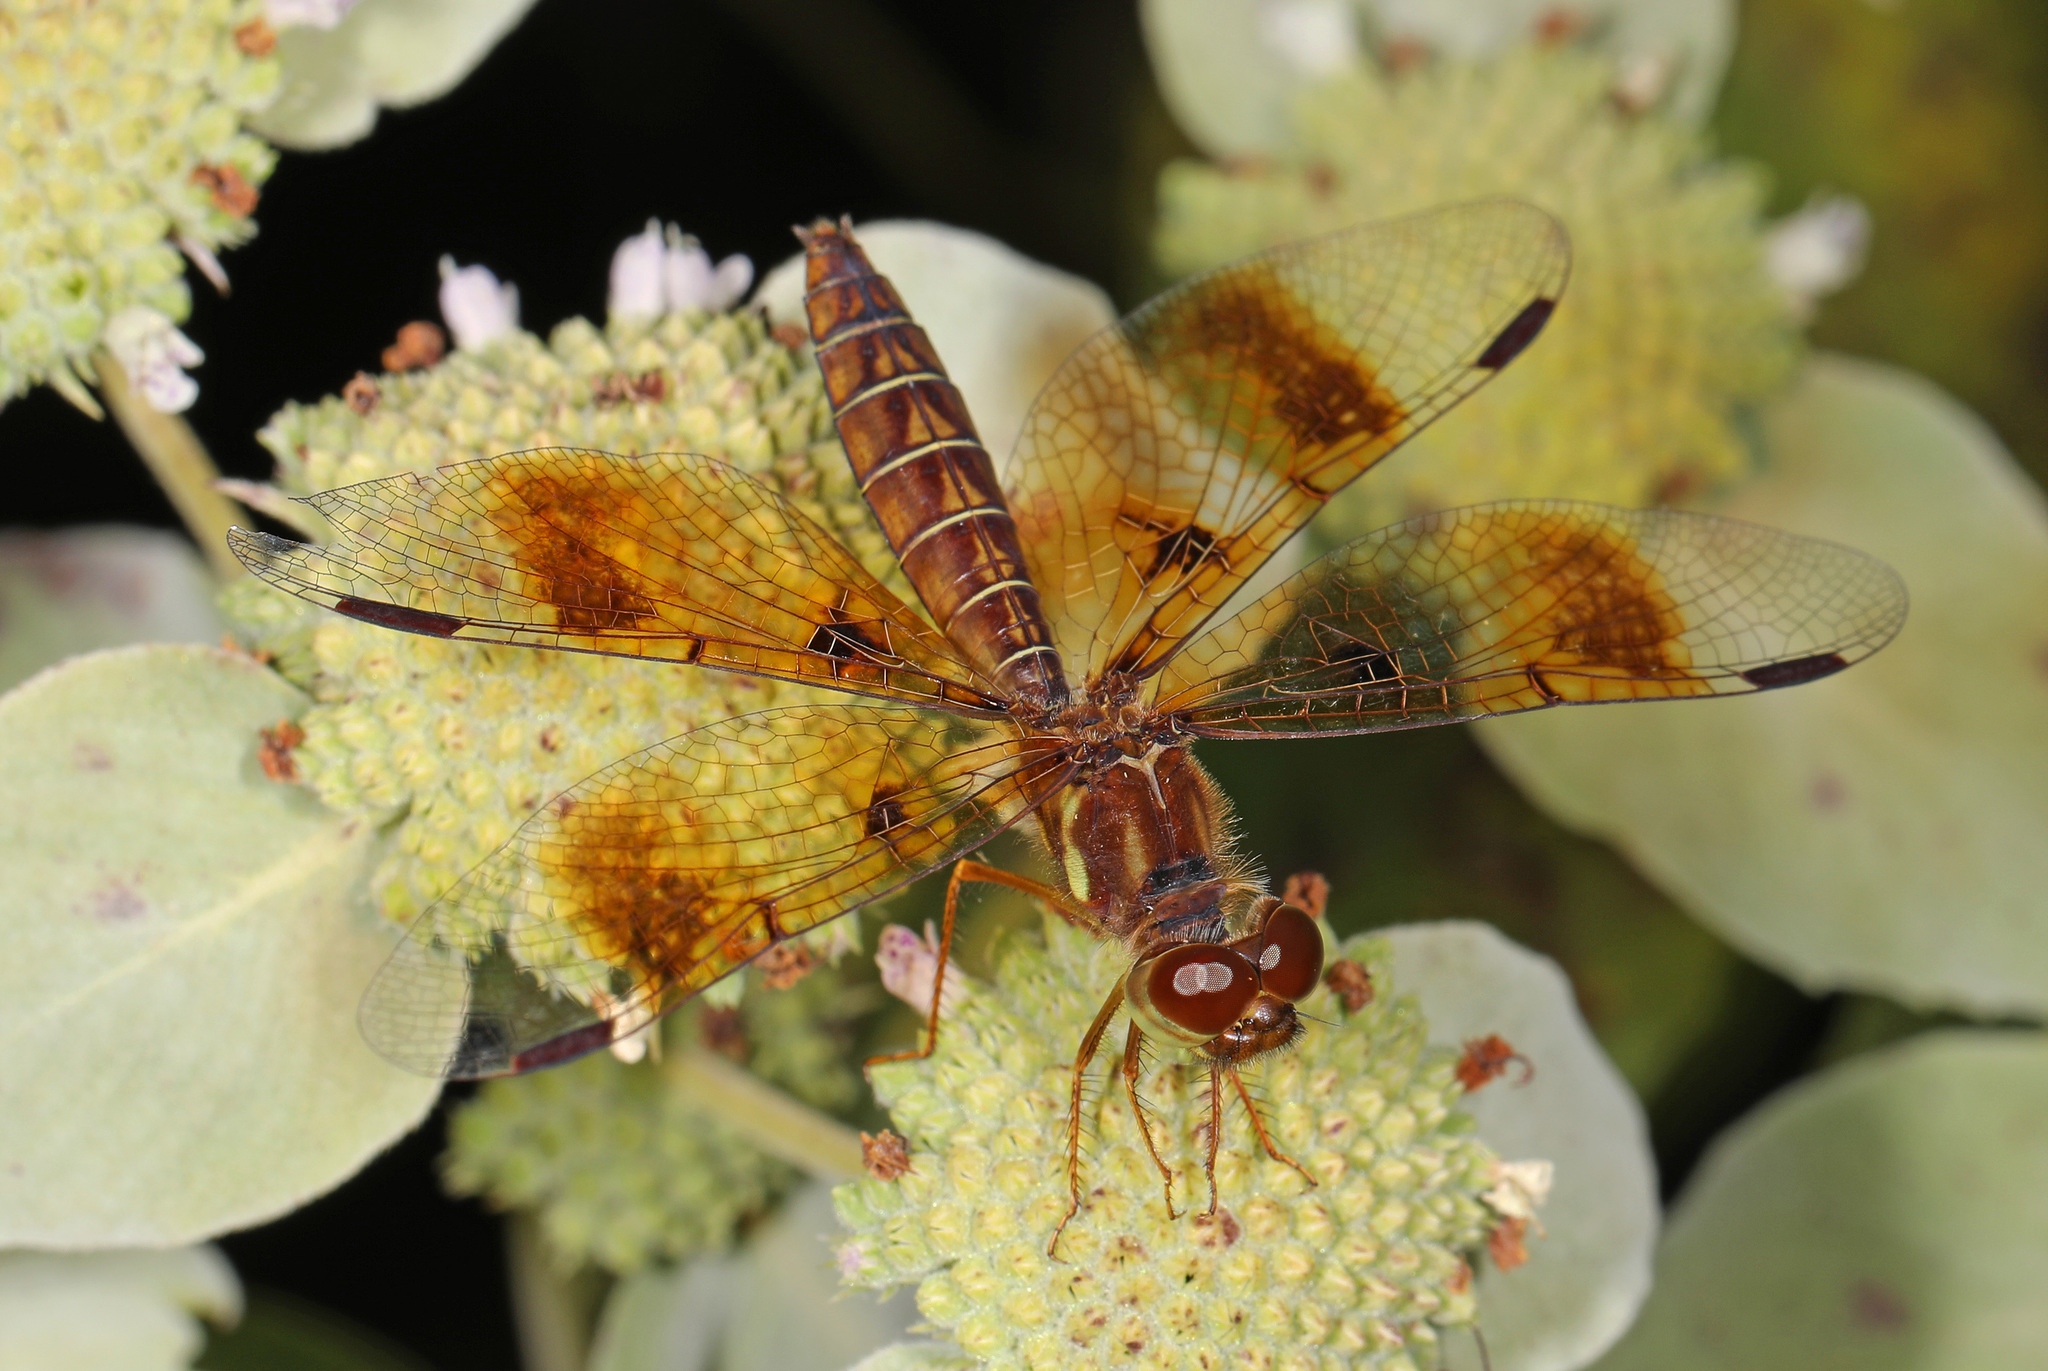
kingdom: Animalia
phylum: Arthropoda
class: Insecta
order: Odonata
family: Libellulidae
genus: Perithemis
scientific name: Perithemis tenera
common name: Eastern amberwing
